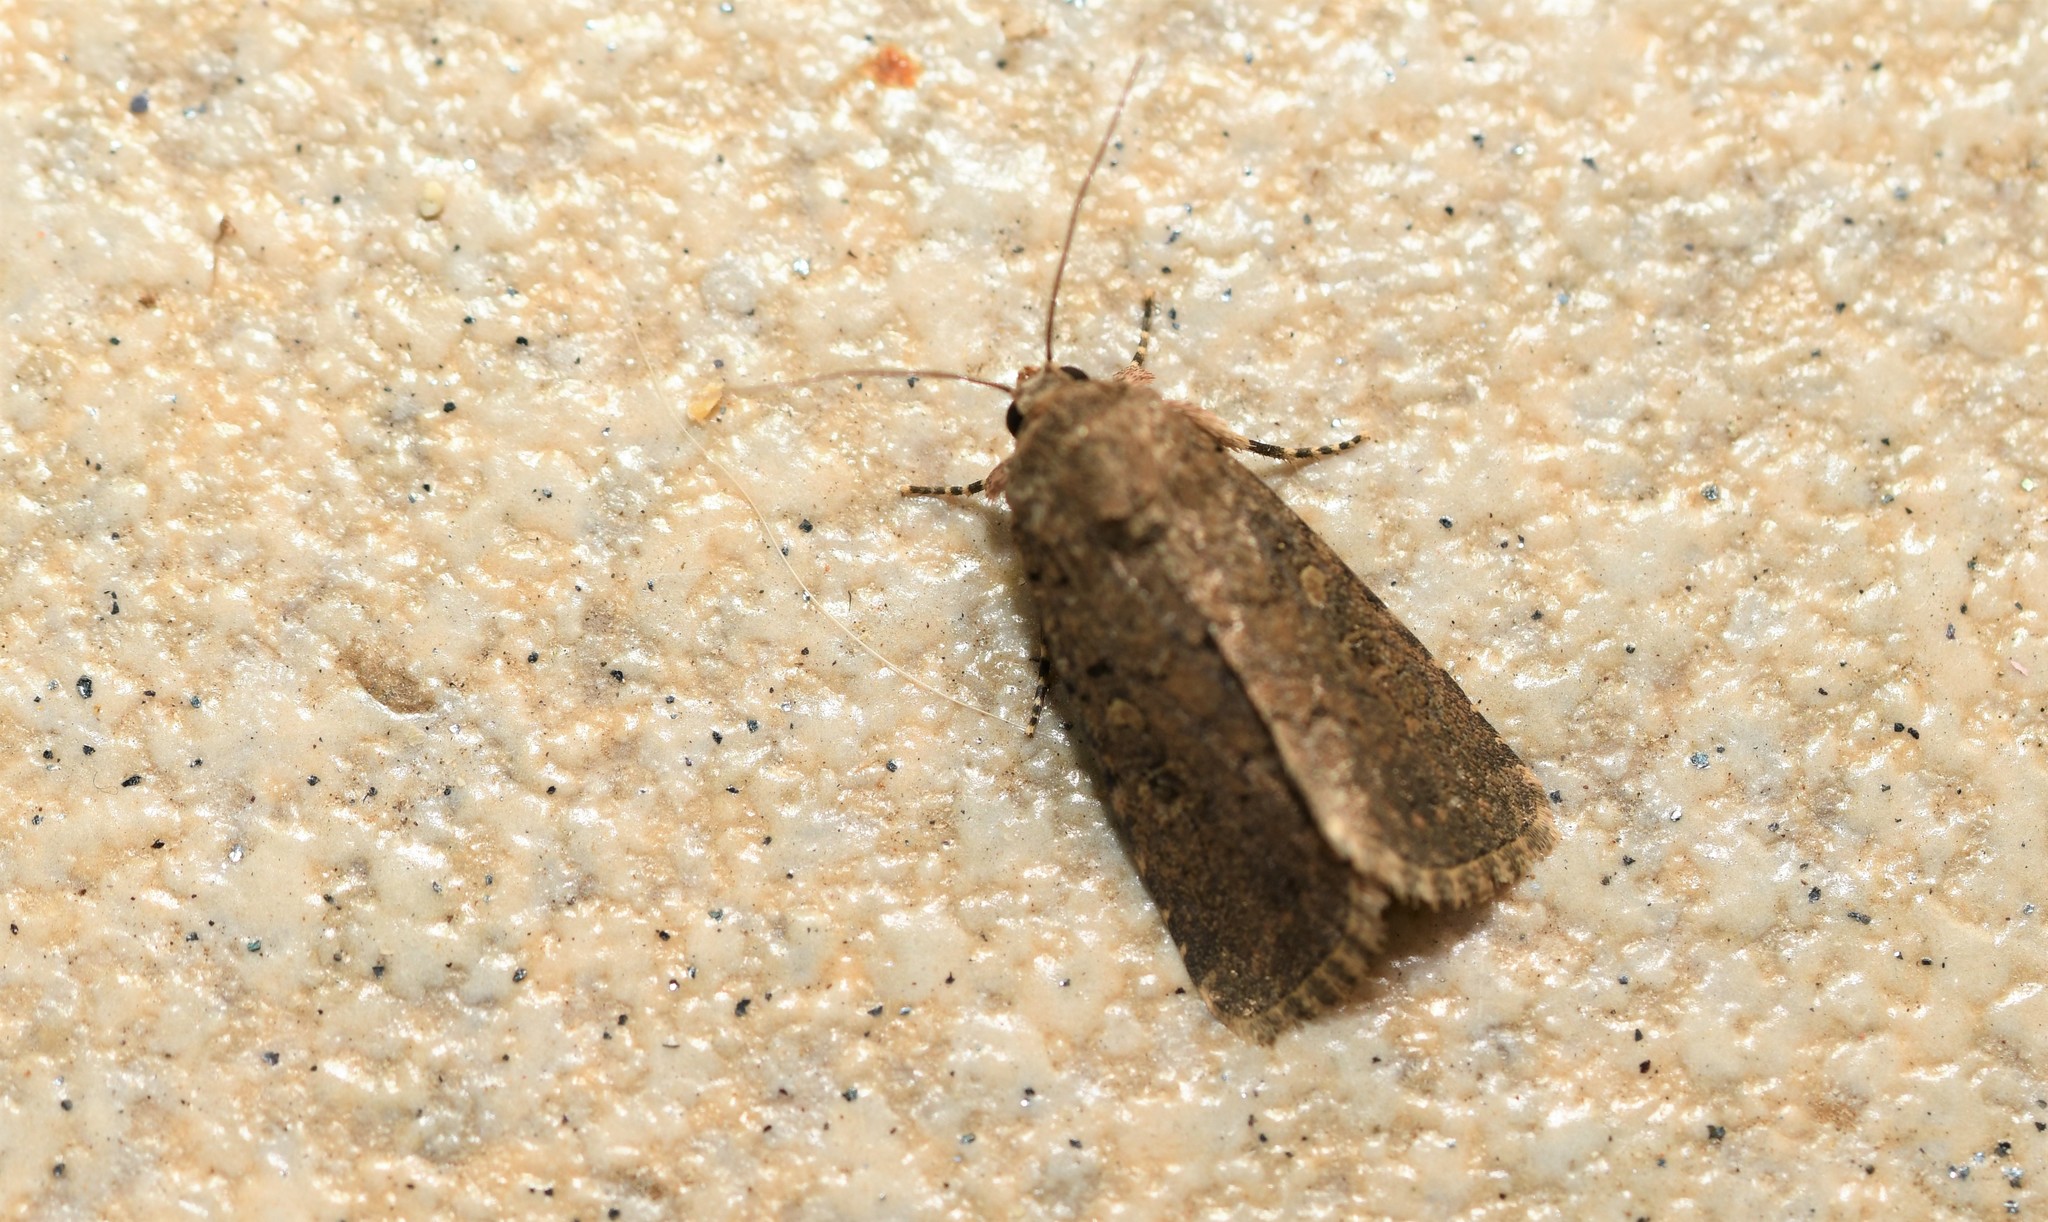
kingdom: Animalia
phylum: Arthropoda
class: Insecta
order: Lepidoptera
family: Noctuidae
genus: Spodoptera
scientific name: Spodoptera cilium
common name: Dark mottled willow
